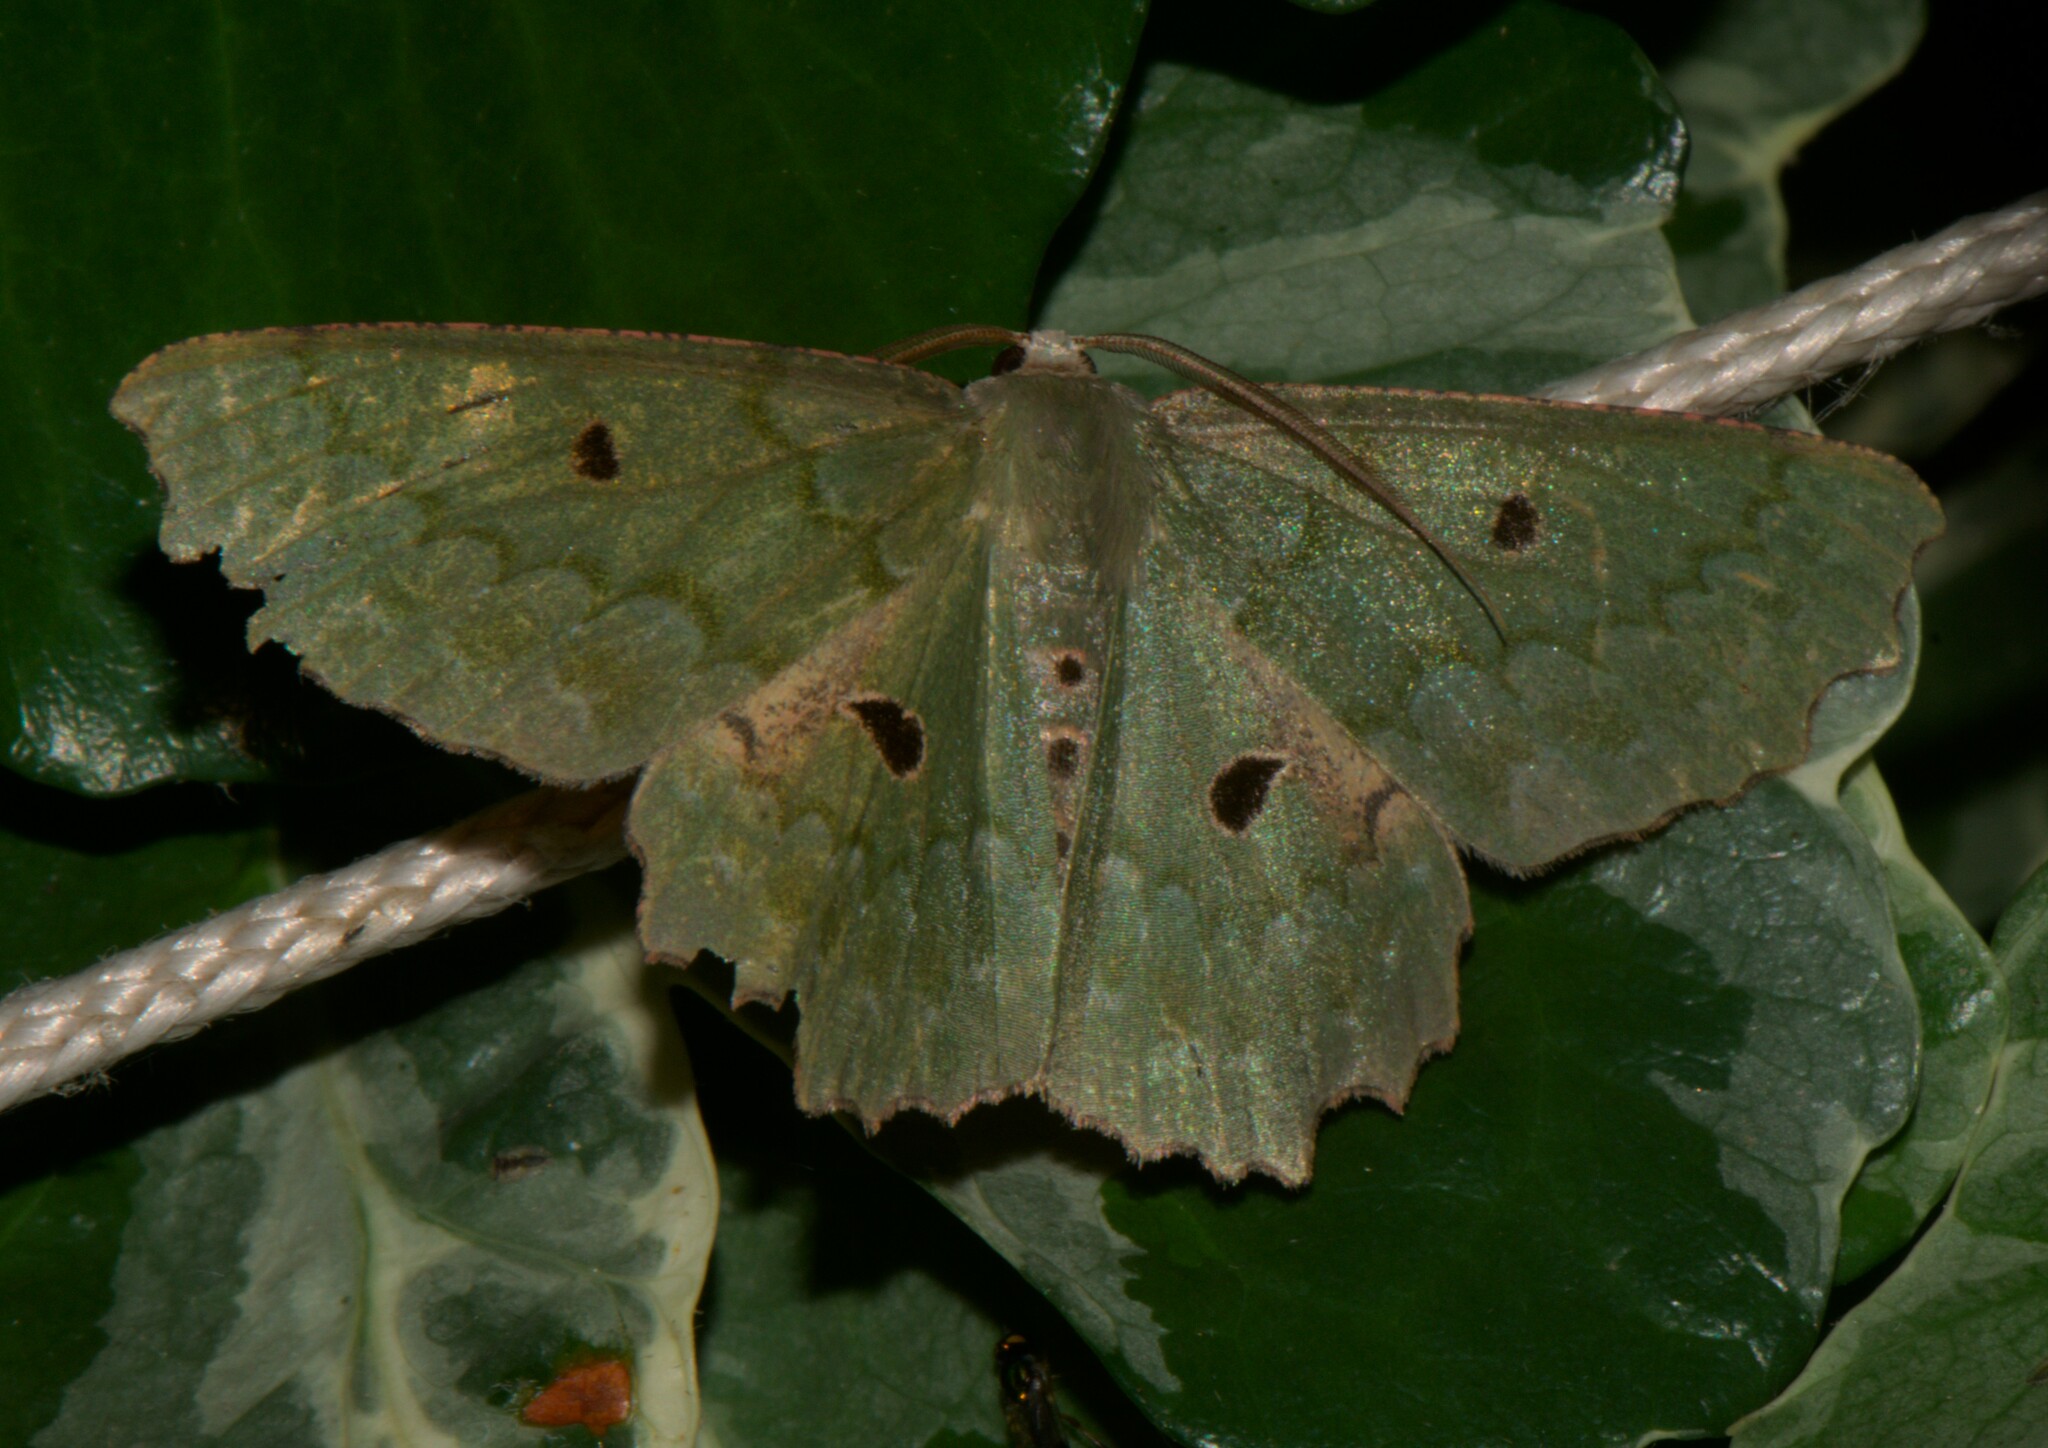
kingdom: Animalia
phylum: Arthropoda
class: Insecta
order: Lepidoptera
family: Geometridae
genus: Chlorodontopera
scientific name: Chlorodontopera discospilata
